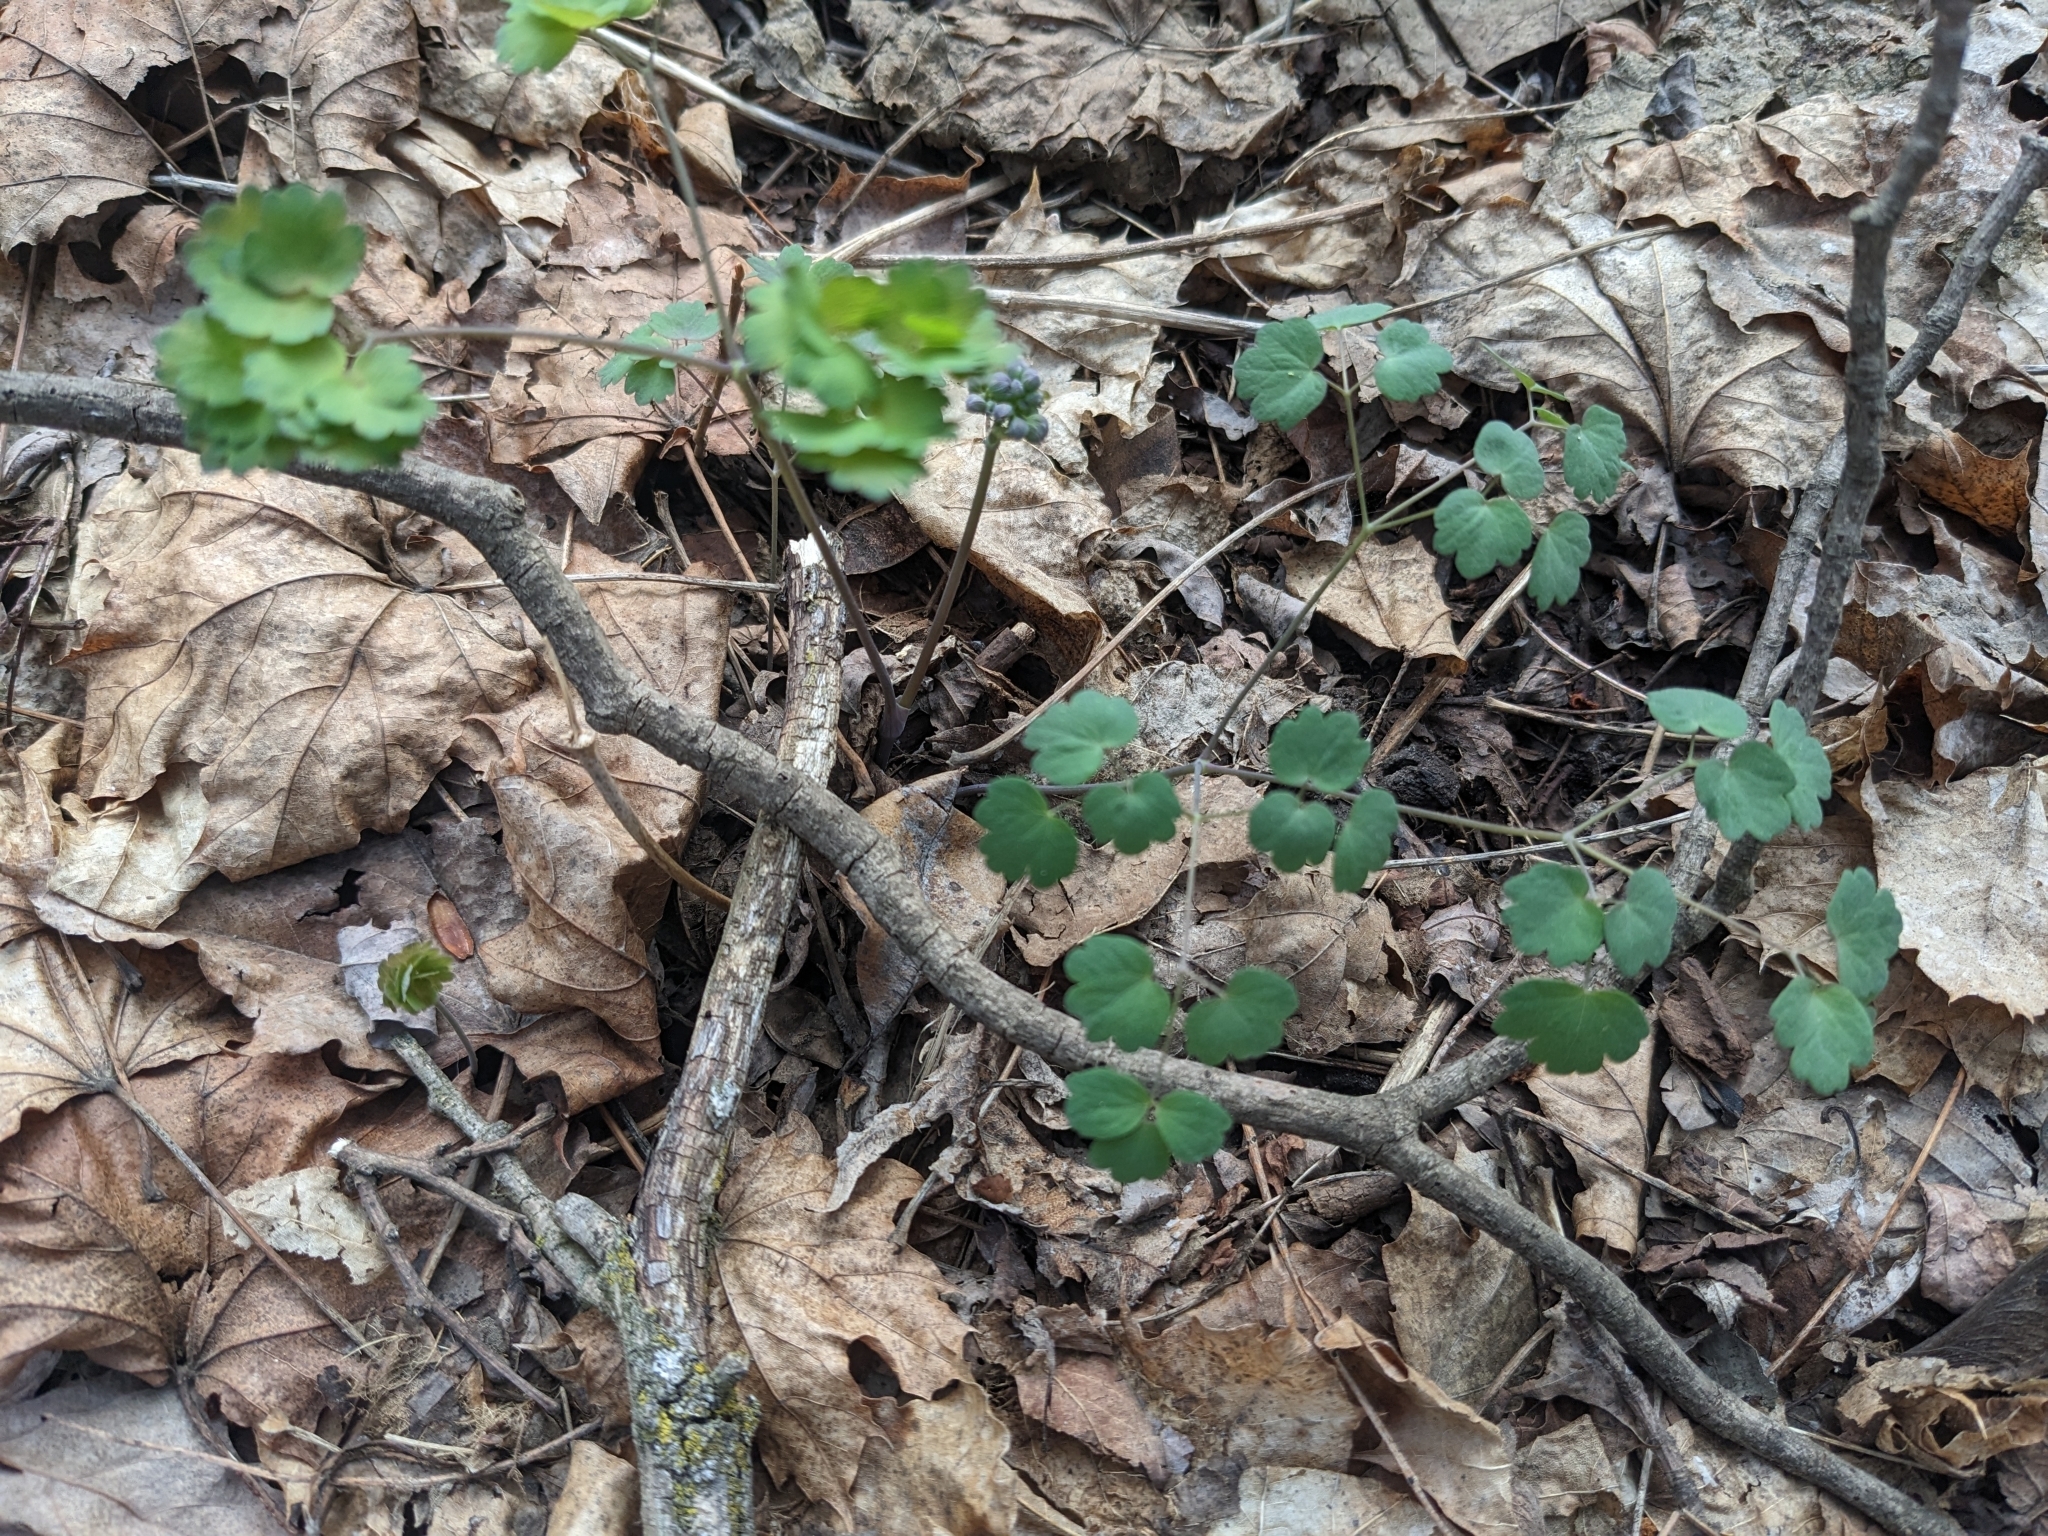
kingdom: Plantae
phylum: Tracheophyta
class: Magnoliopsida
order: Ranunculales
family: Ranunculaceae
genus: Thalictrum
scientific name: Thalictrum dioicum
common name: Early meadow-rue
